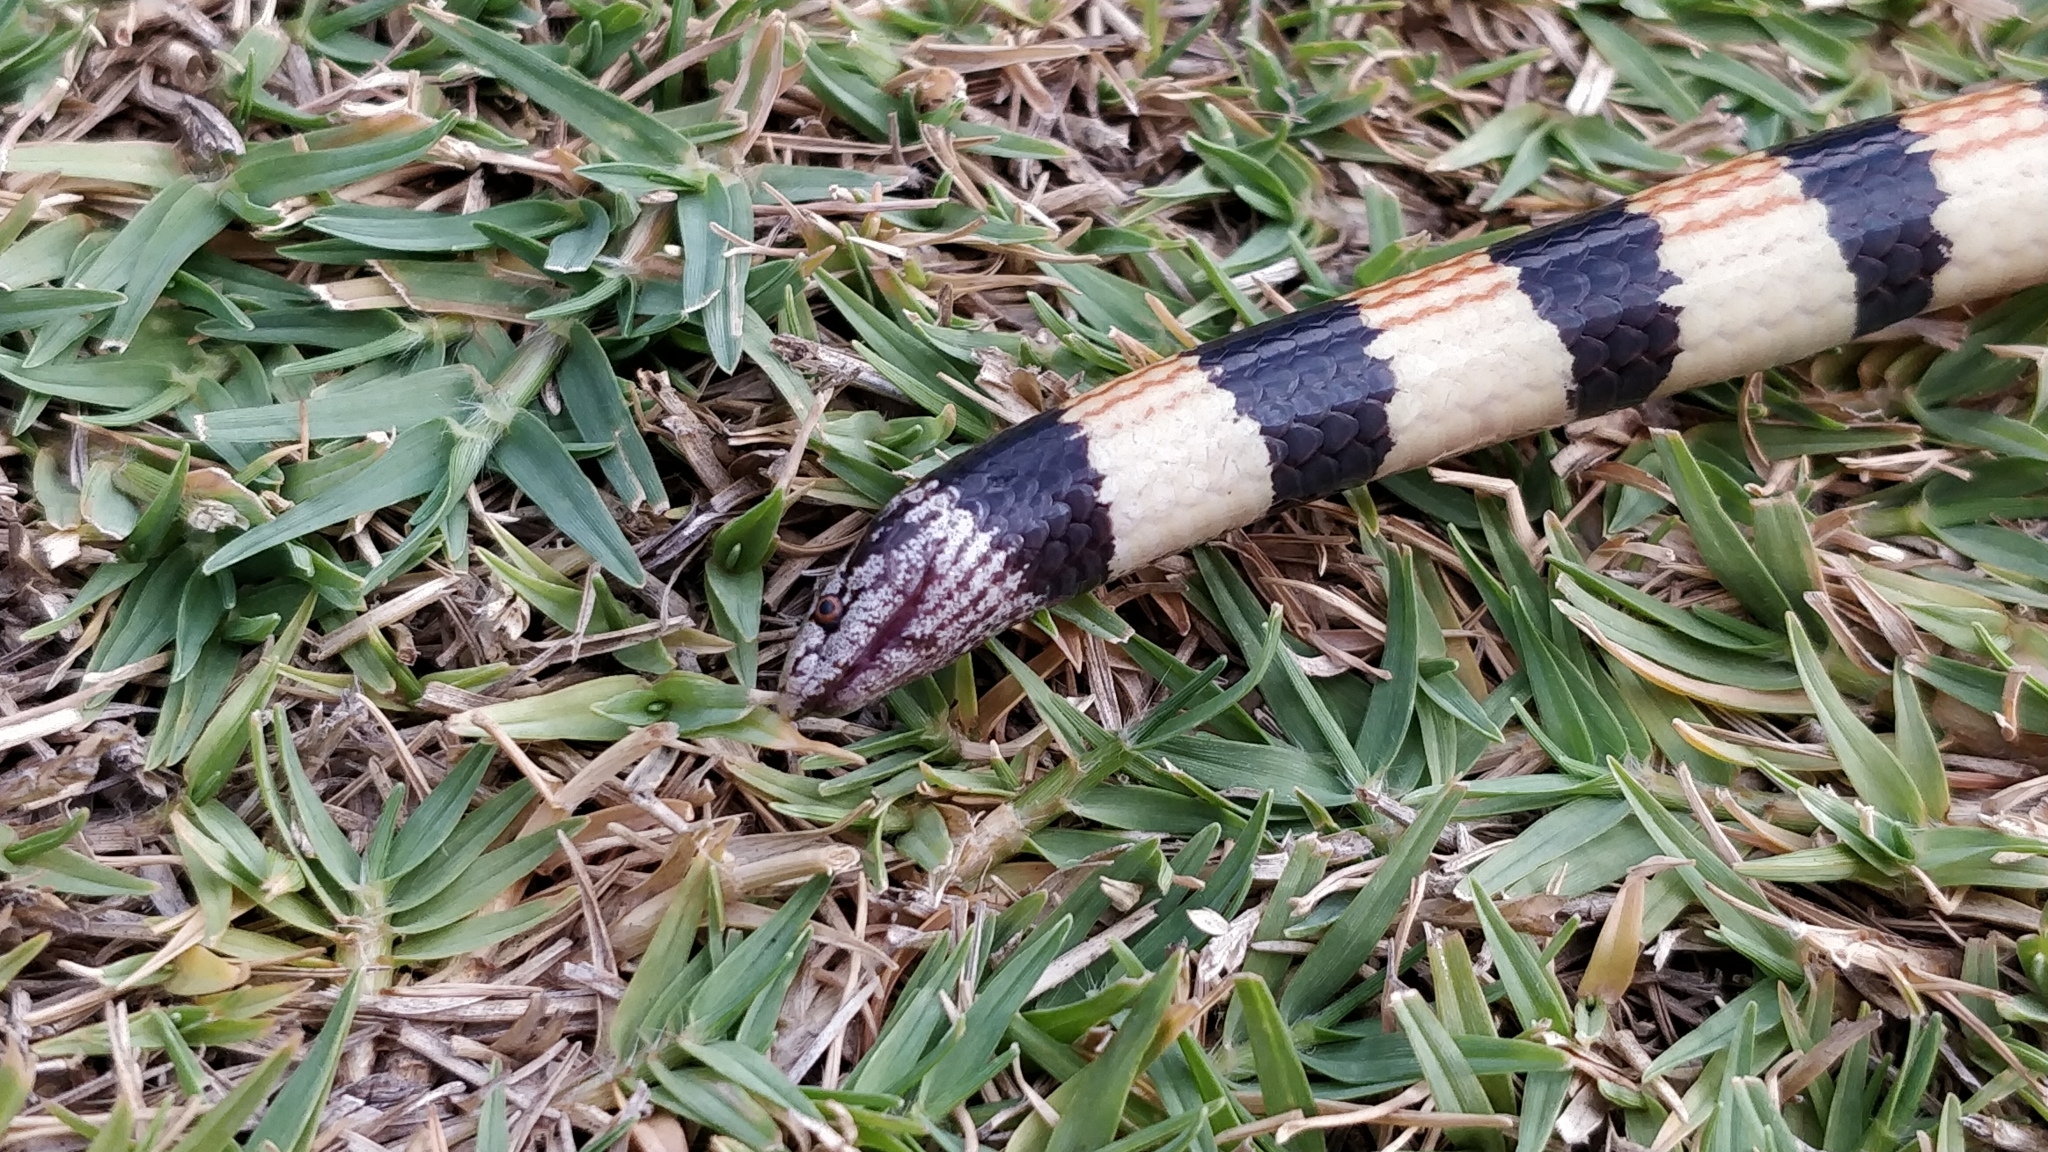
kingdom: Animalia
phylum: Chordata
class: Squamata
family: Elapidae
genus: Simoselaps
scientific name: Simoselaps bertholdi
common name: Desert banded snake
